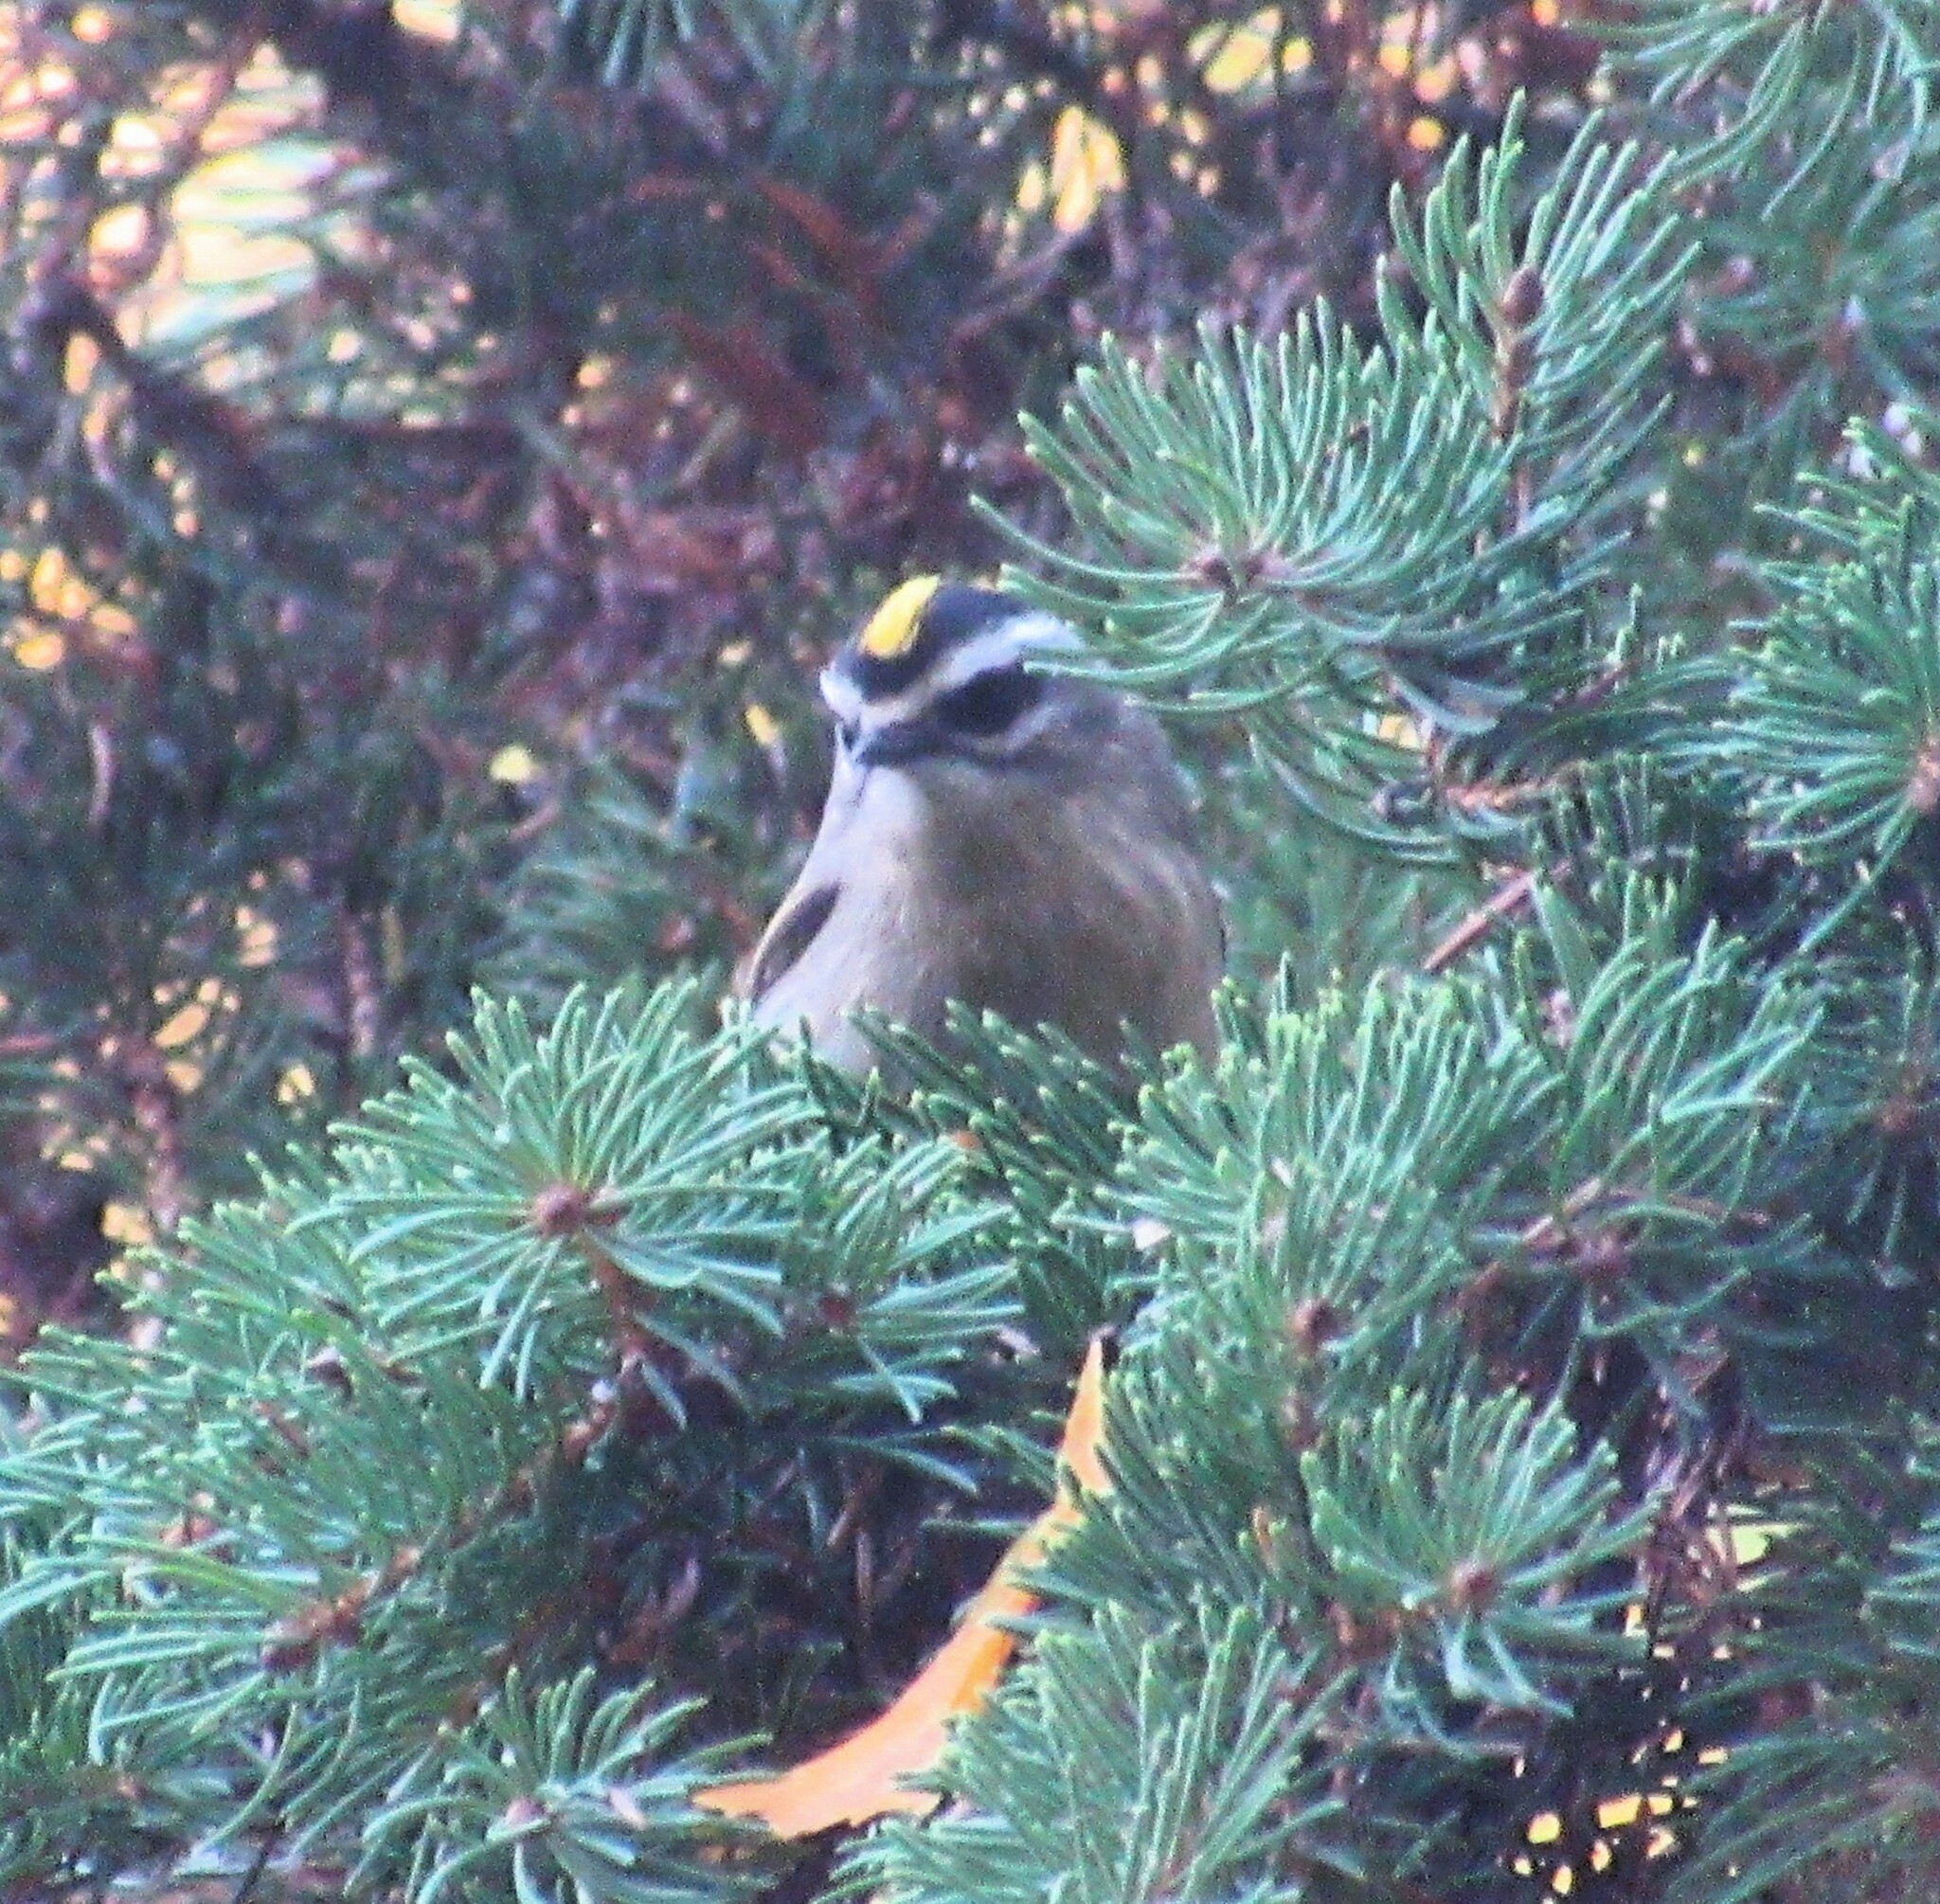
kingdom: Animalia
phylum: Chordata
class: Aves
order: Passeriformes
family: Regulidae
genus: Regulus
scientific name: Regulus satrapa
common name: Golden-crowned kinglet
